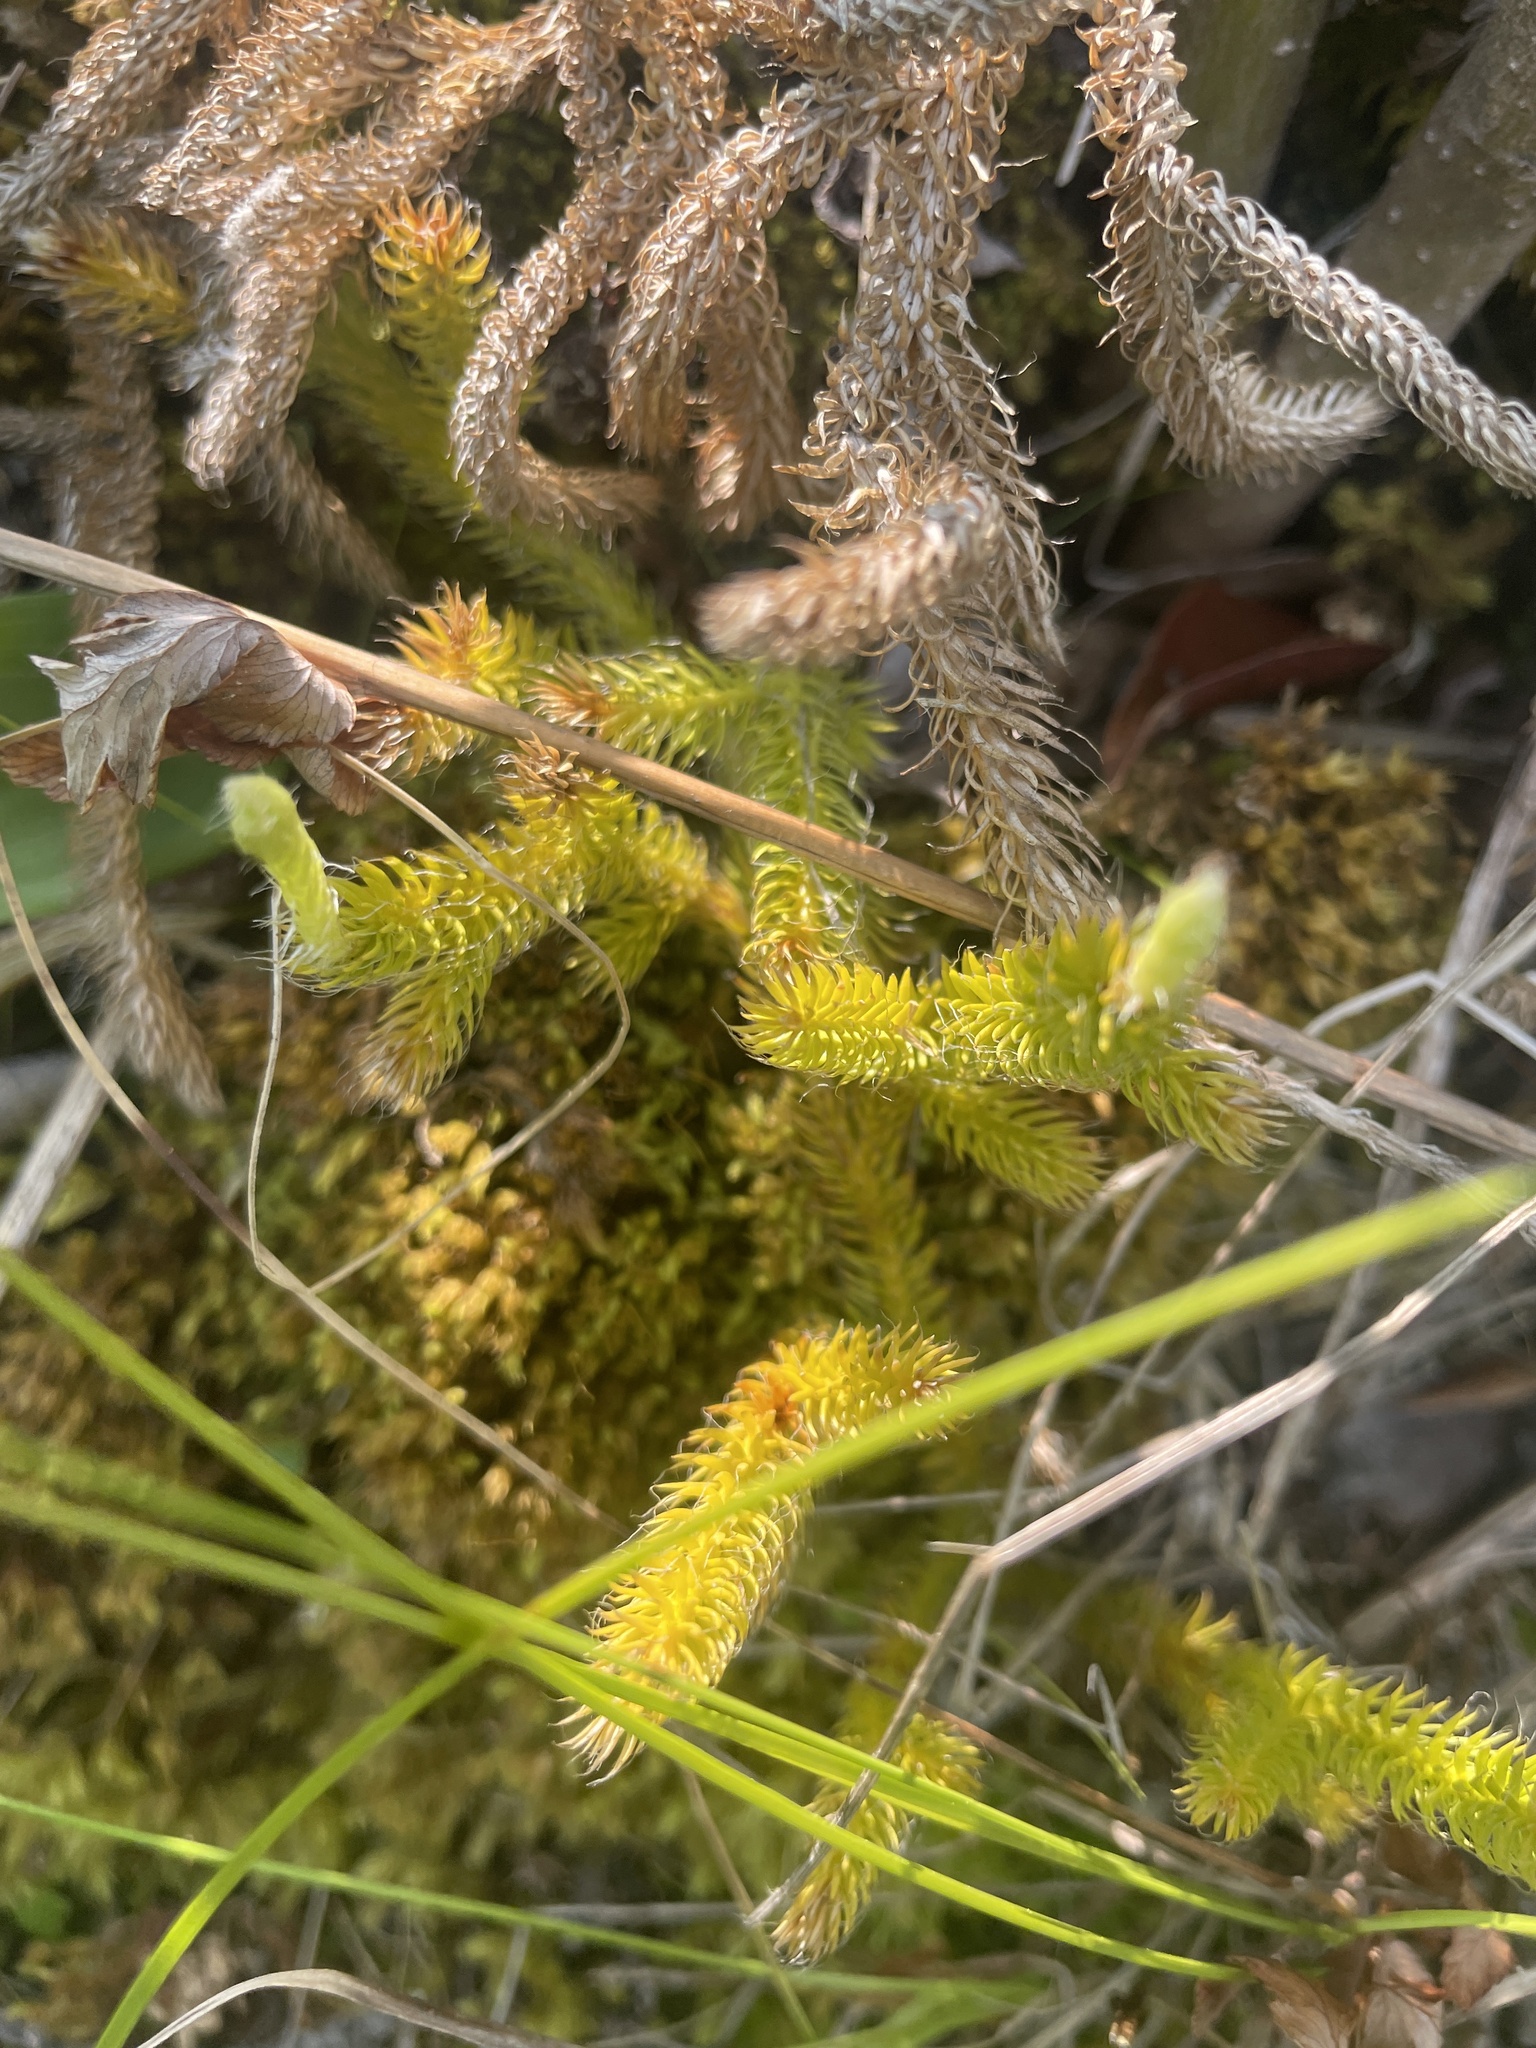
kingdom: Plantae
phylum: Tracheophyta
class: Lycopodiopsida
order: Lycopodiales
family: Lycopodiaceae
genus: Lycopodium
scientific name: Lycopodium clavatum
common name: Stag's-horn clubmoss
